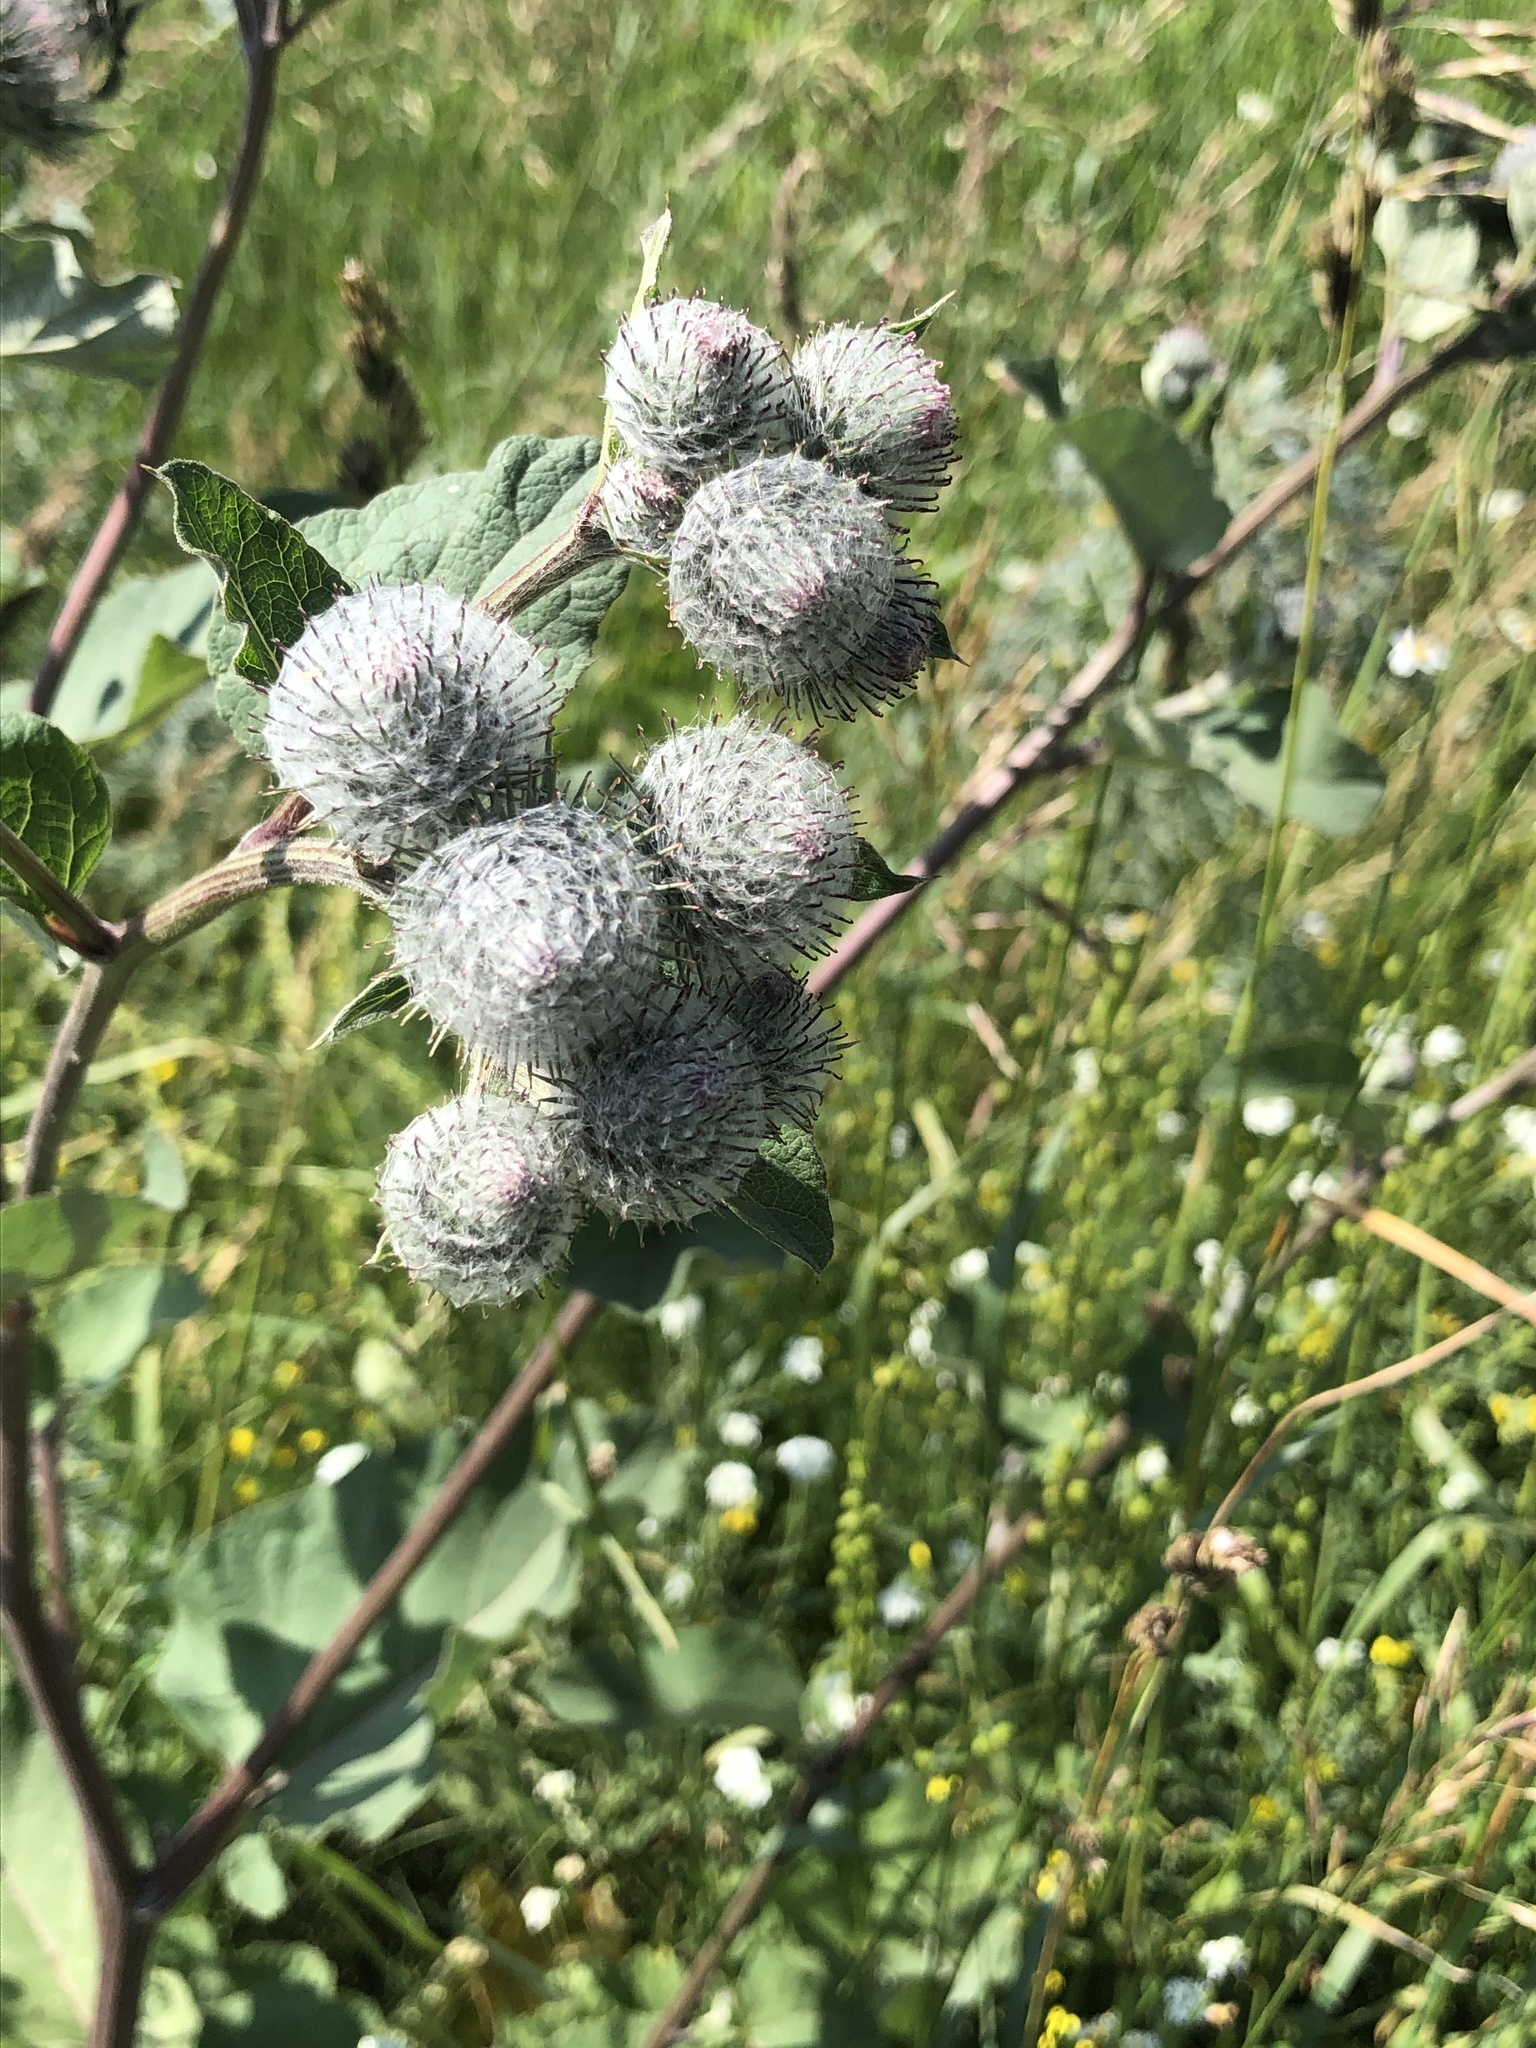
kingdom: Plantae
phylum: Tracheophyta
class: Magnoliopsida
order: Asterales
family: Asteraceae
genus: Arctium
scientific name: Arctium tomentosum
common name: Woolly burdock
